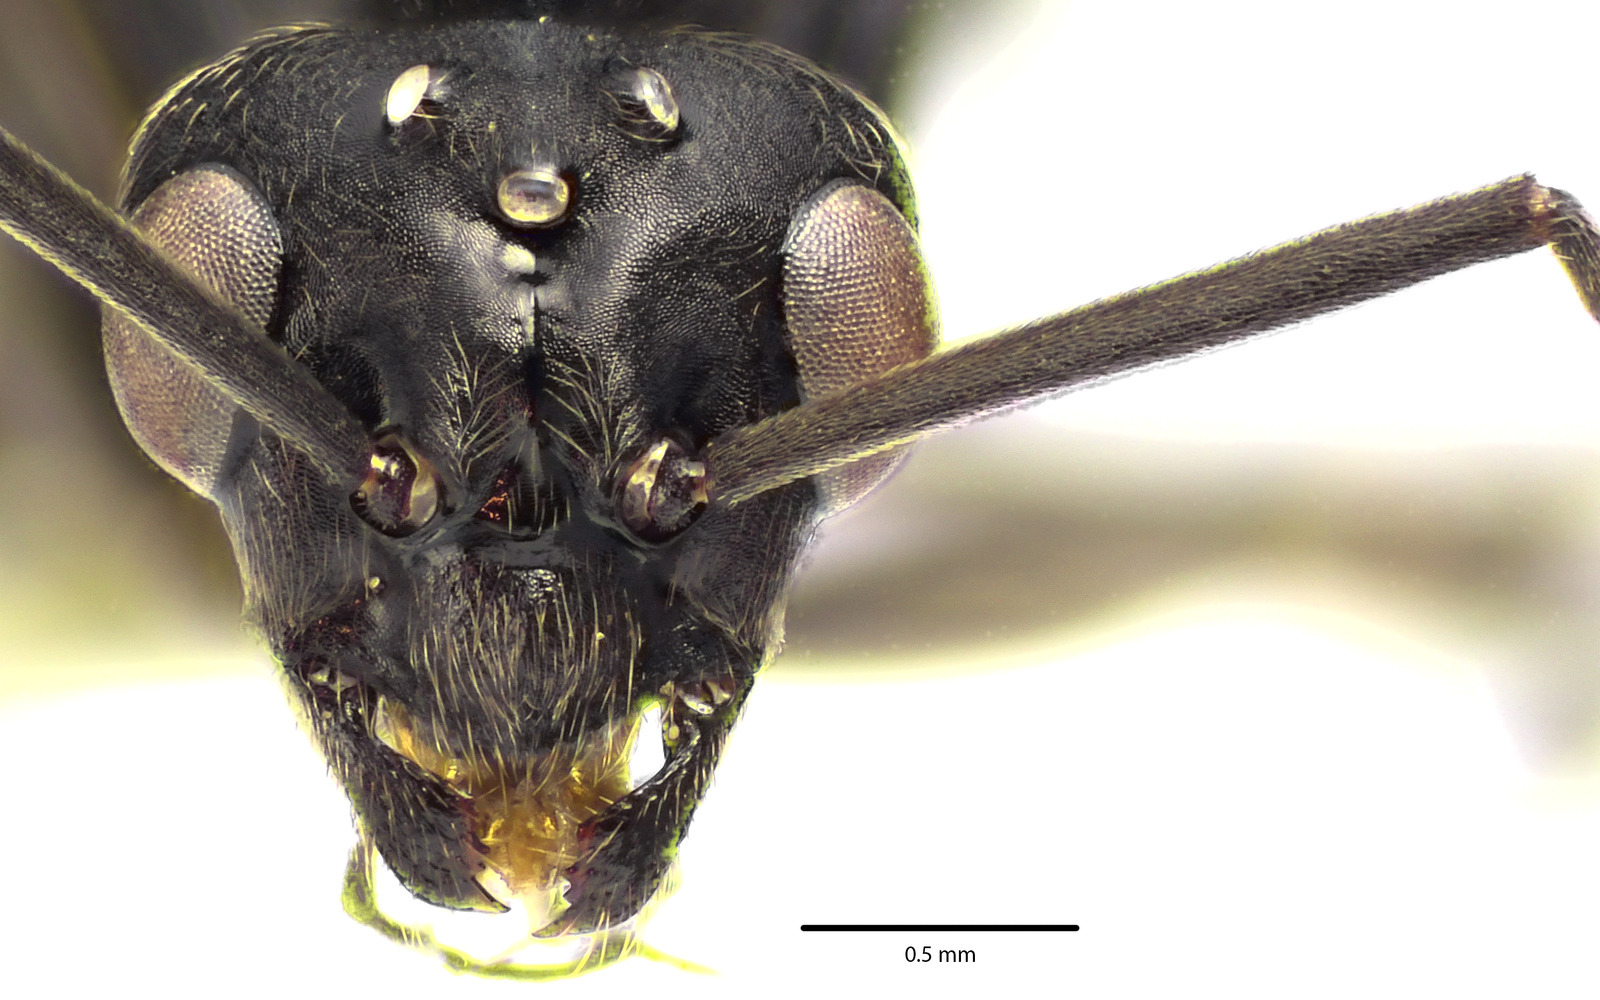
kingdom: Animalia
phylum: Arthropoda
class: Insecta
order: Hymenoptera
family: Formicidae
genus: Formica
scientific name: Formica prociliata
